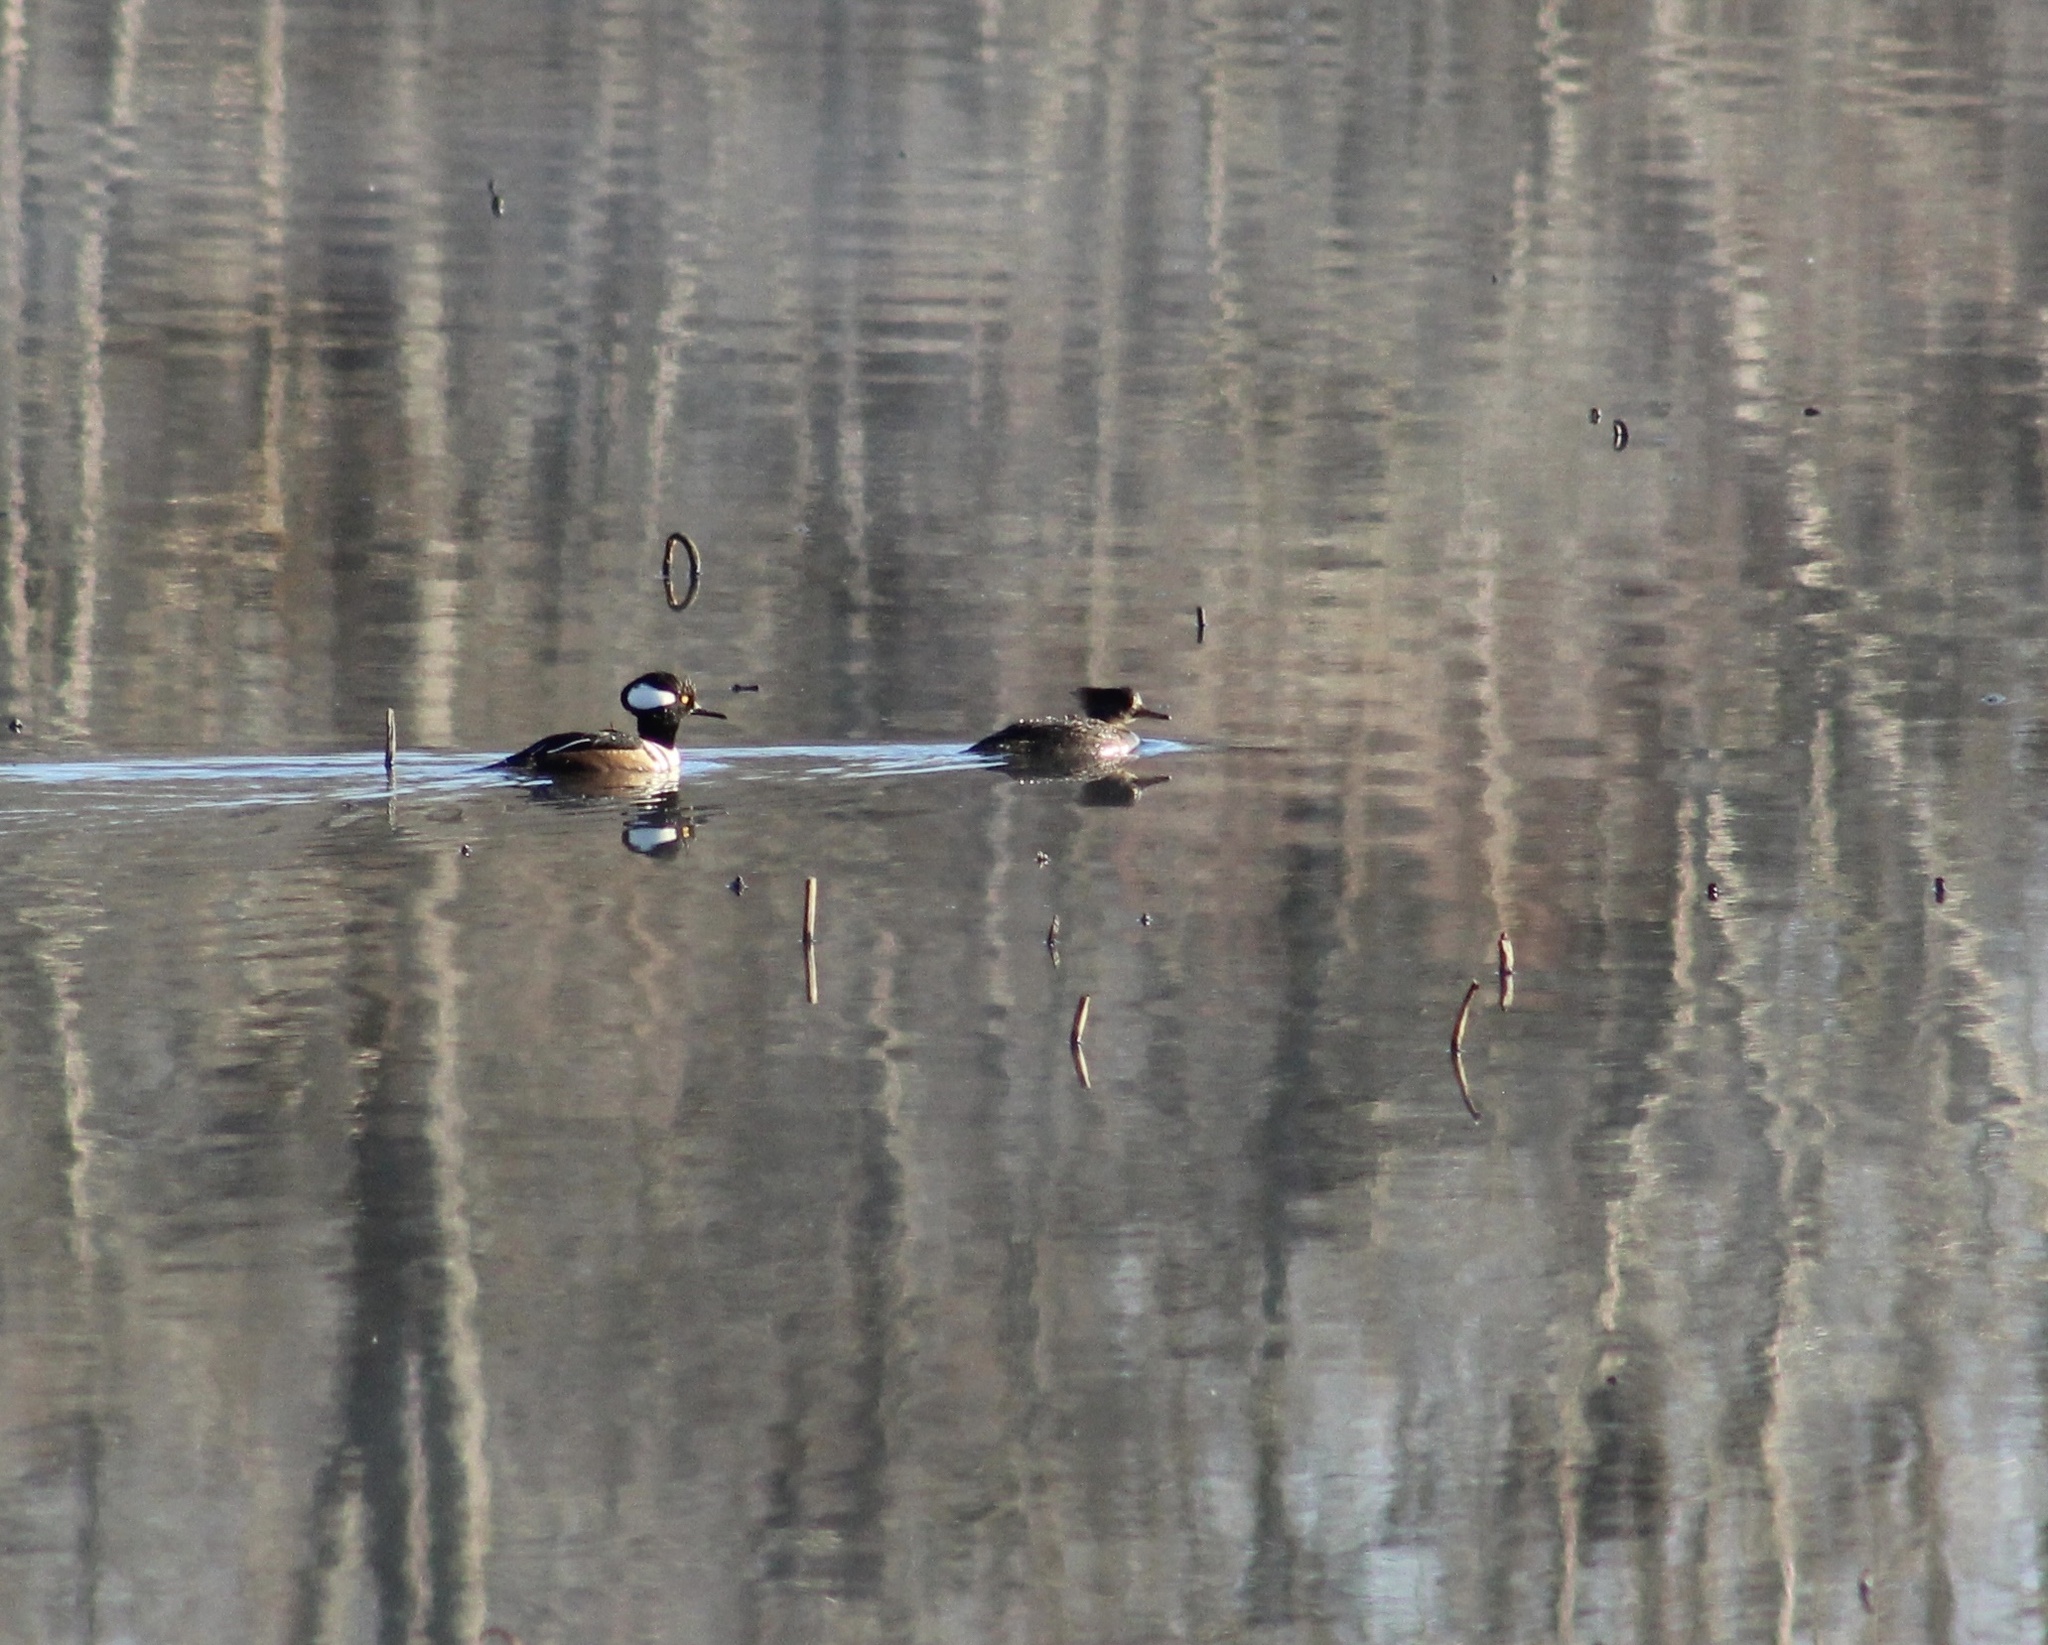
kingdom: Animalia
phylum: Chordata
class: Aves
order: Anseriformes
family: Anatidae
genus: Lophodytes
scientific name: Lophodytes cucullatus
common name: Hooded merganser
